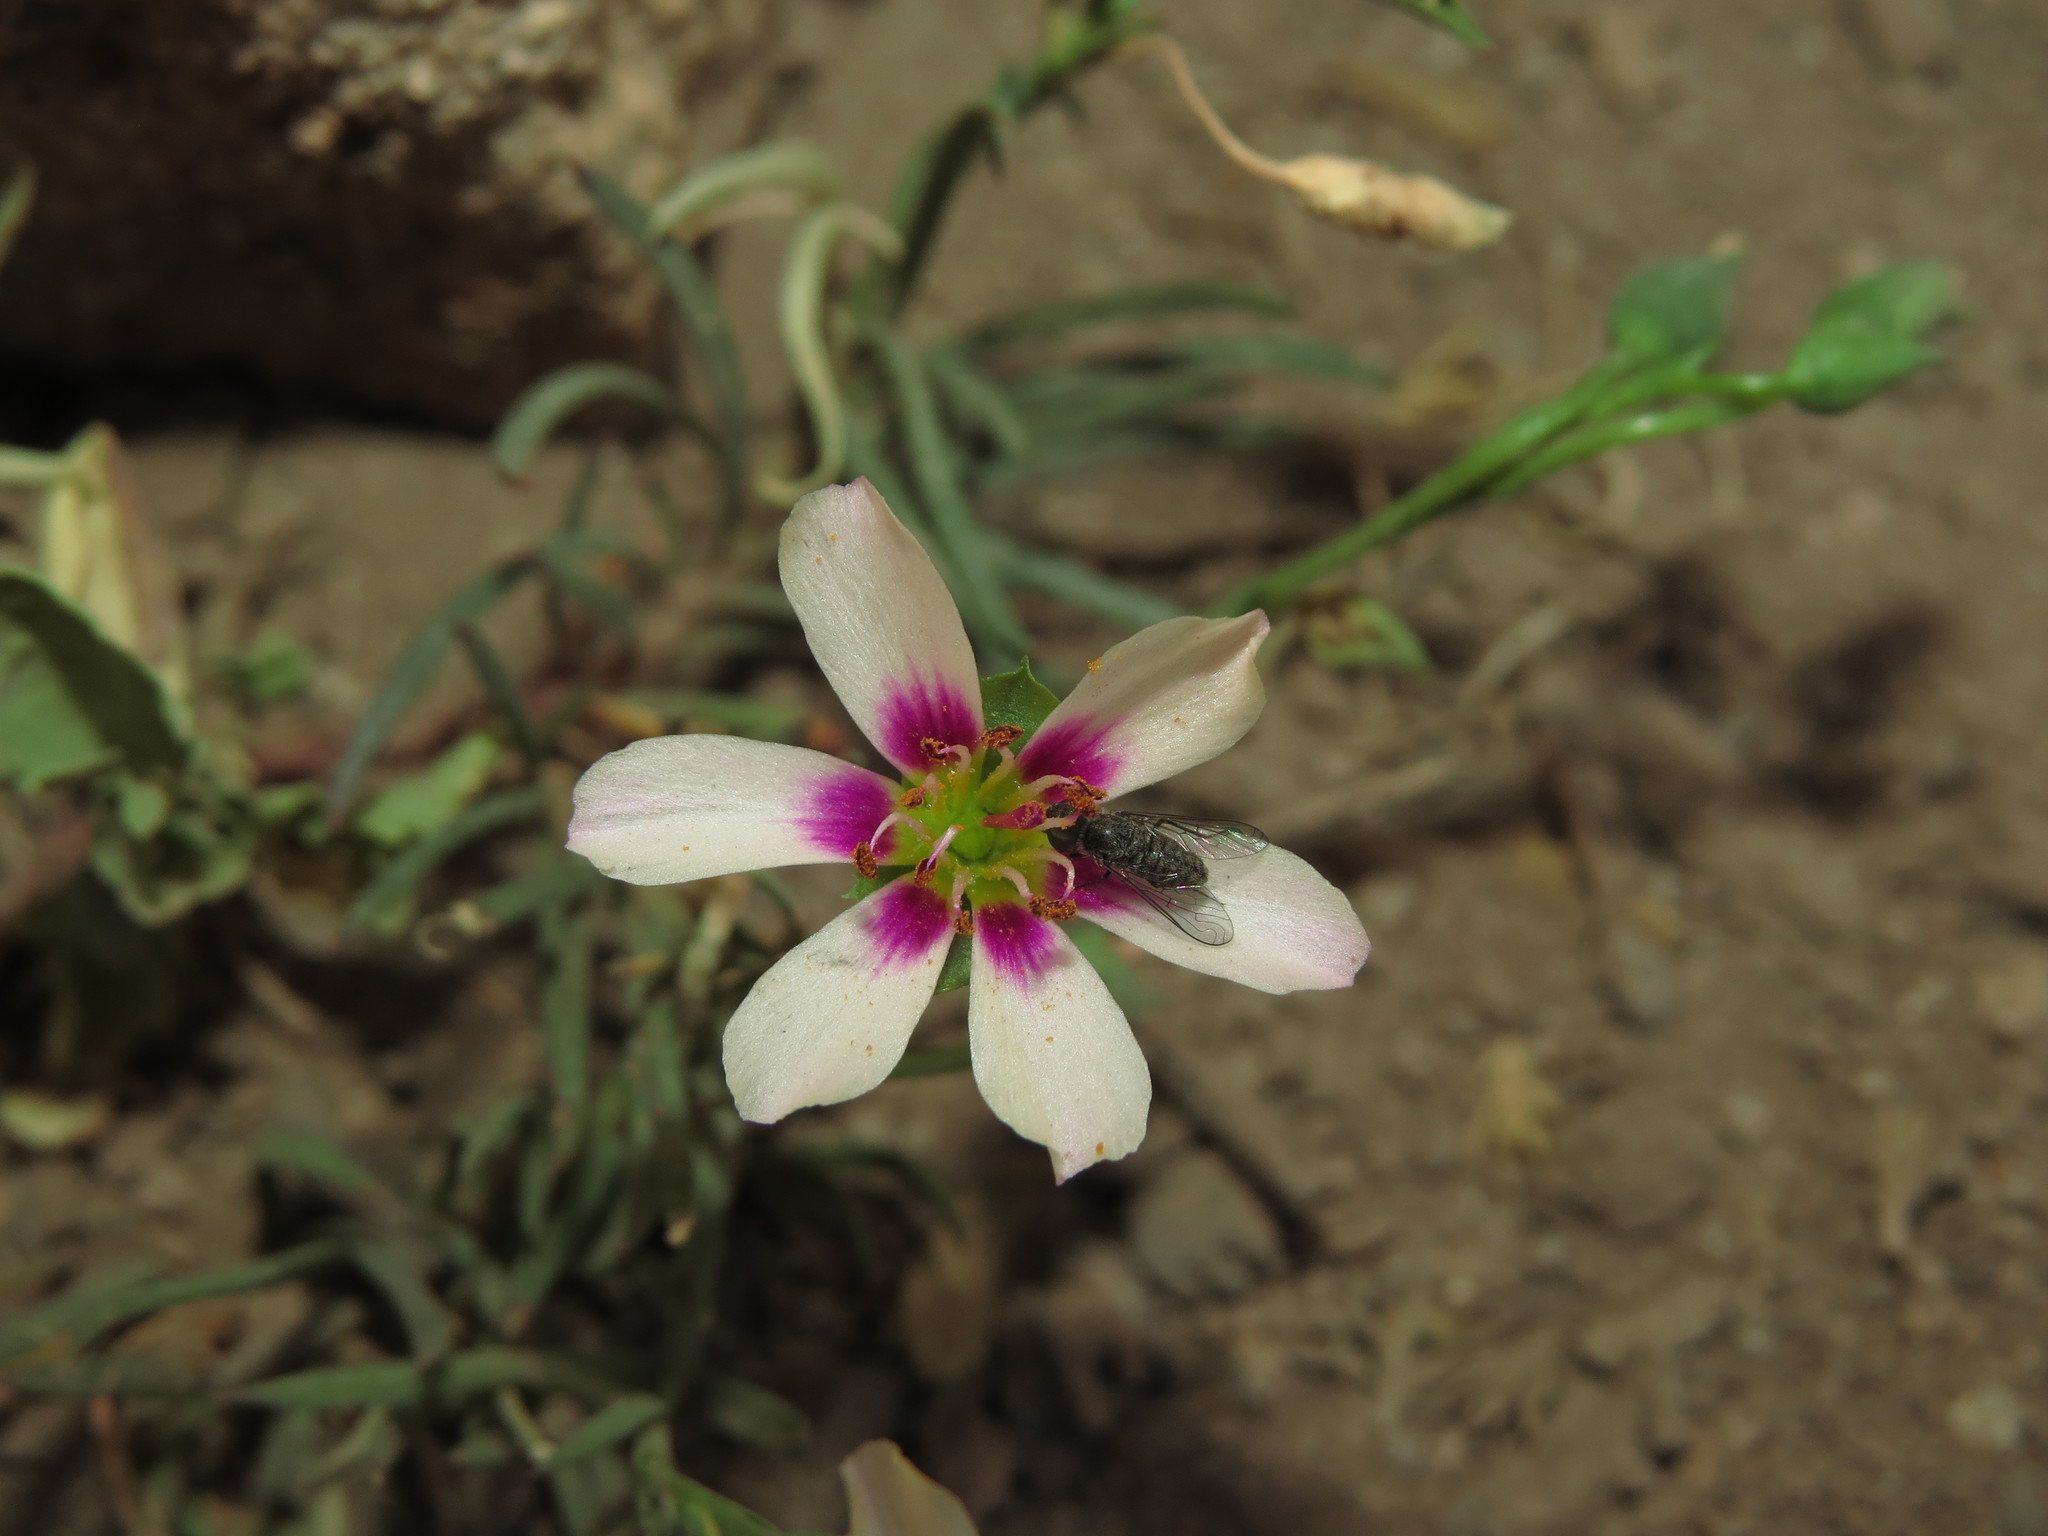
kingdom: Plantae
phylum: Tracheophyta
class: Magnoliopsida
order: Caryophyllales
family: Montiaceae
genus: Montiopsis
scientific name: Montiopsis andicola
